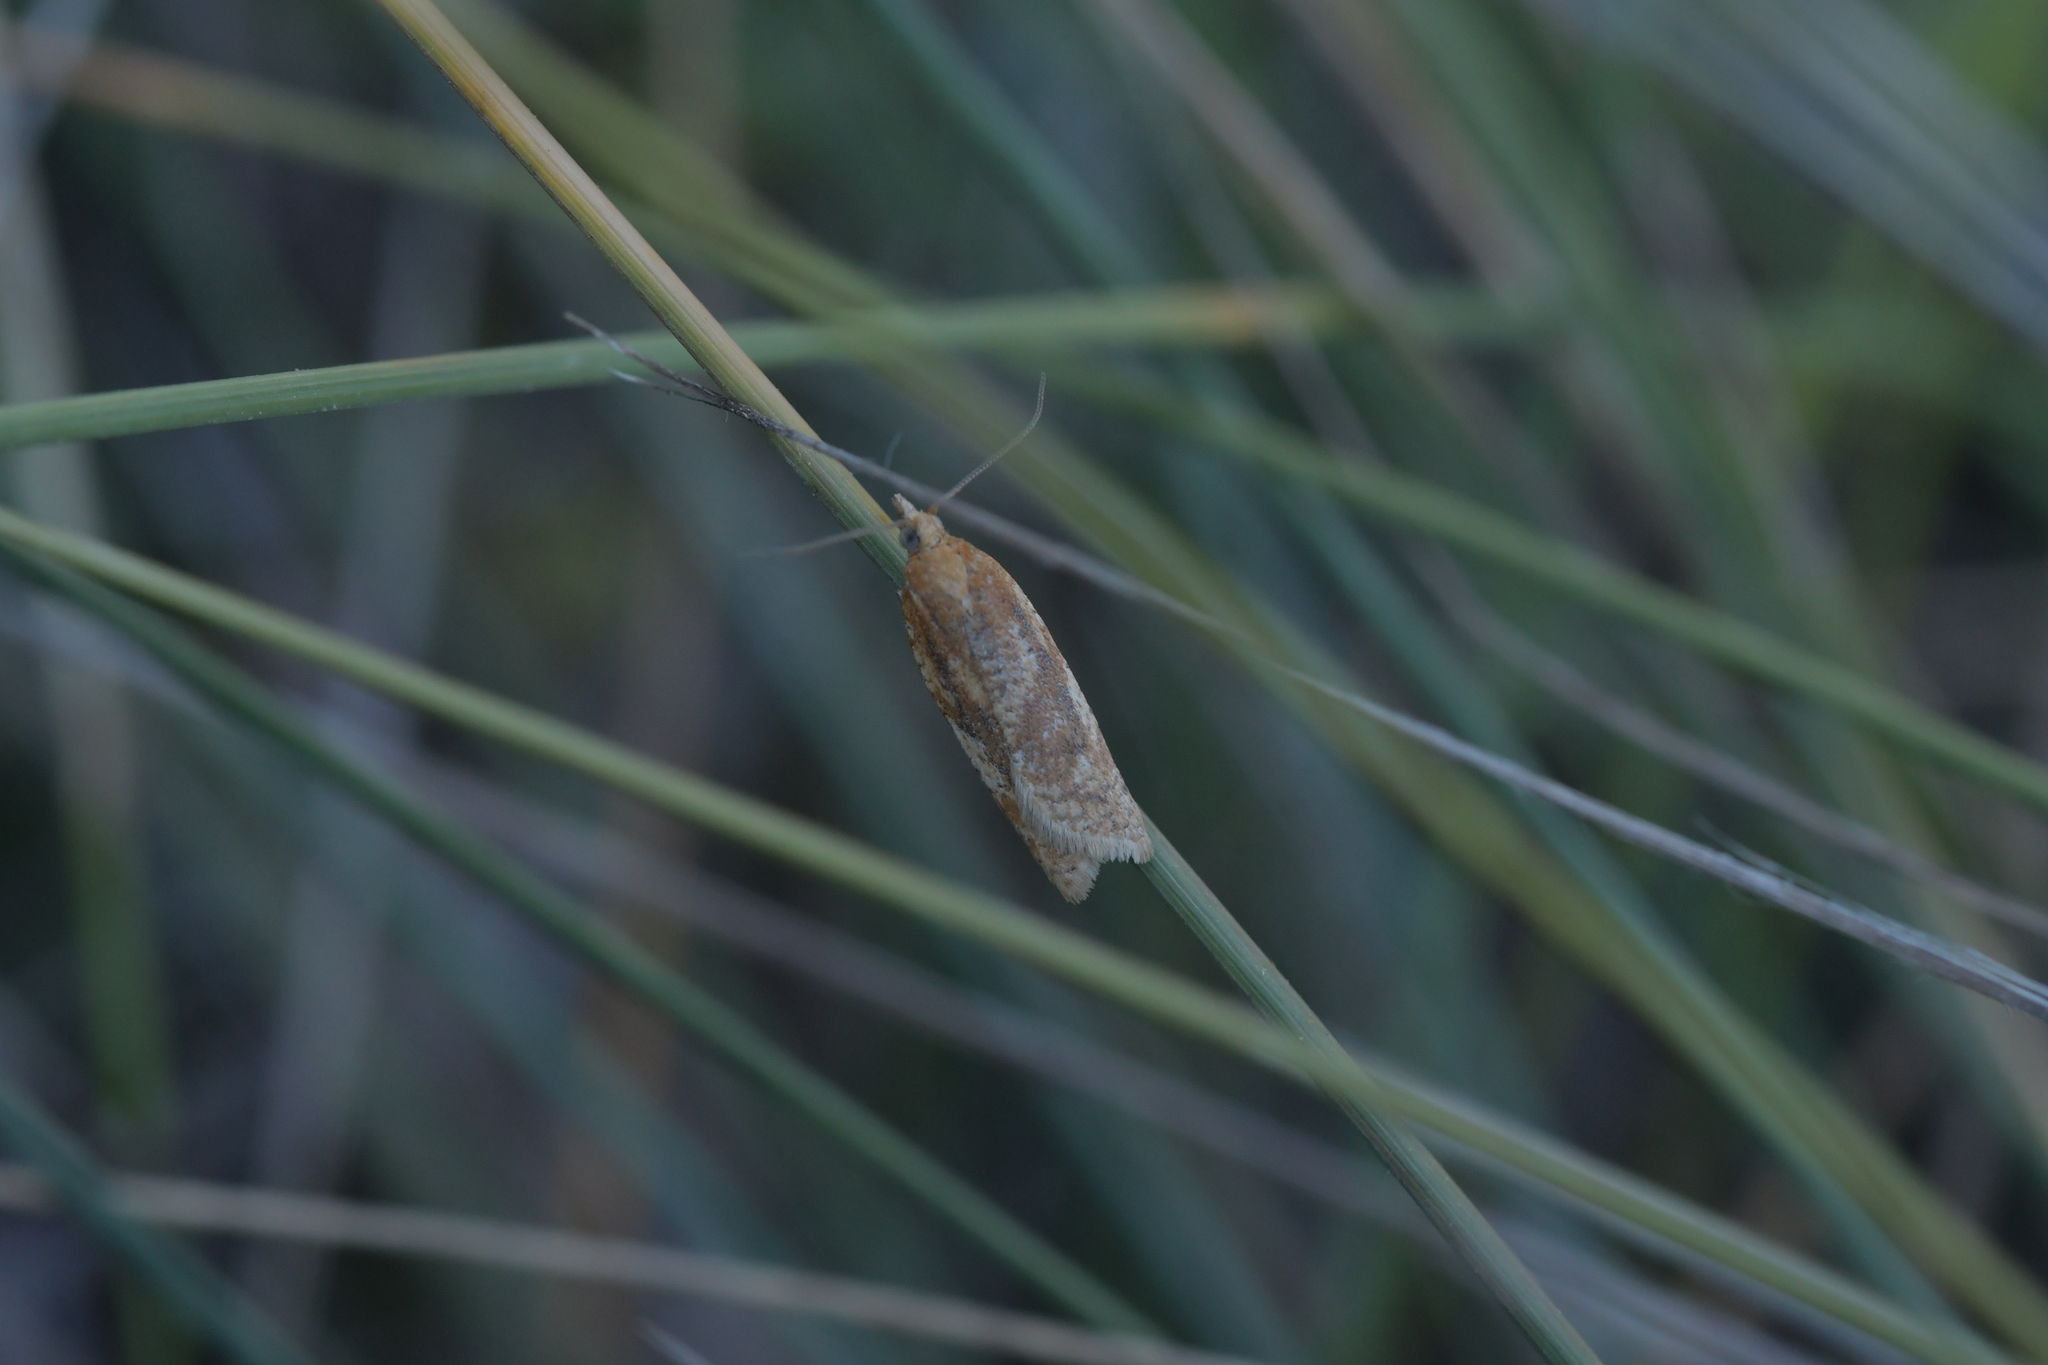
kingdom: Animalia
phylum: Arthropoda
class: Insecta
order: Lepidoptera
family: Tortricidae
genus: Clepsis
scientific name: Clepsis
